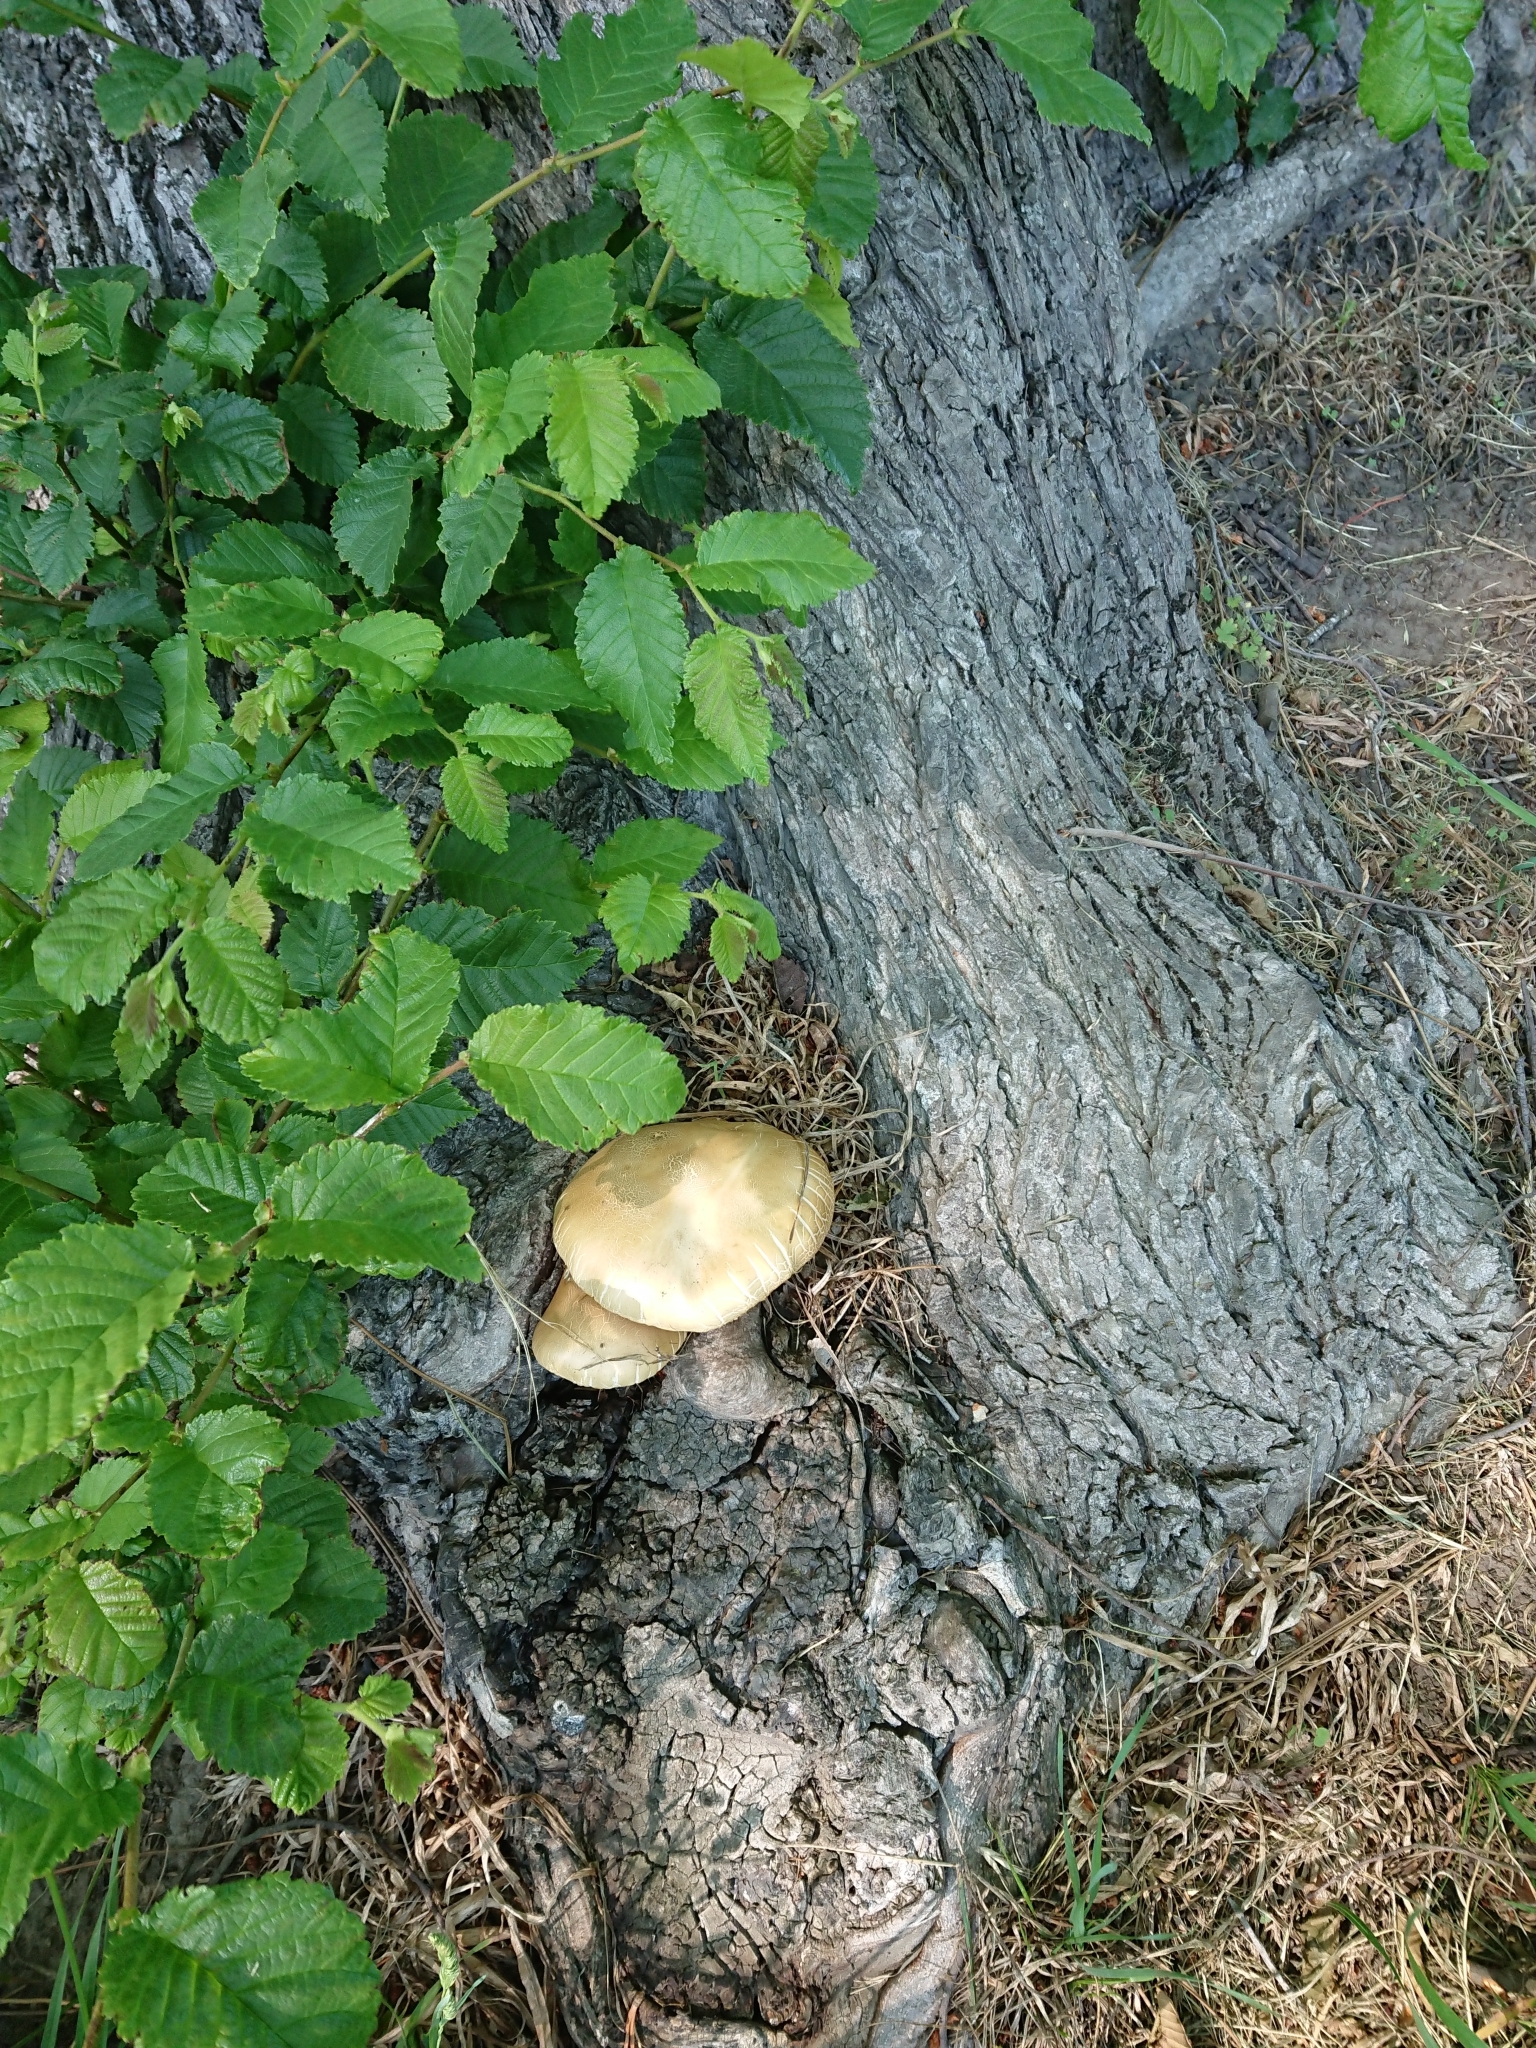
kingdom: Fungi
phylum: Basidiomycota
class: Agaricomycetes
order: Agaricales
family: Tubariaceae
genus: Cyclocybe
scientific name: Cyclocybe parasitica
